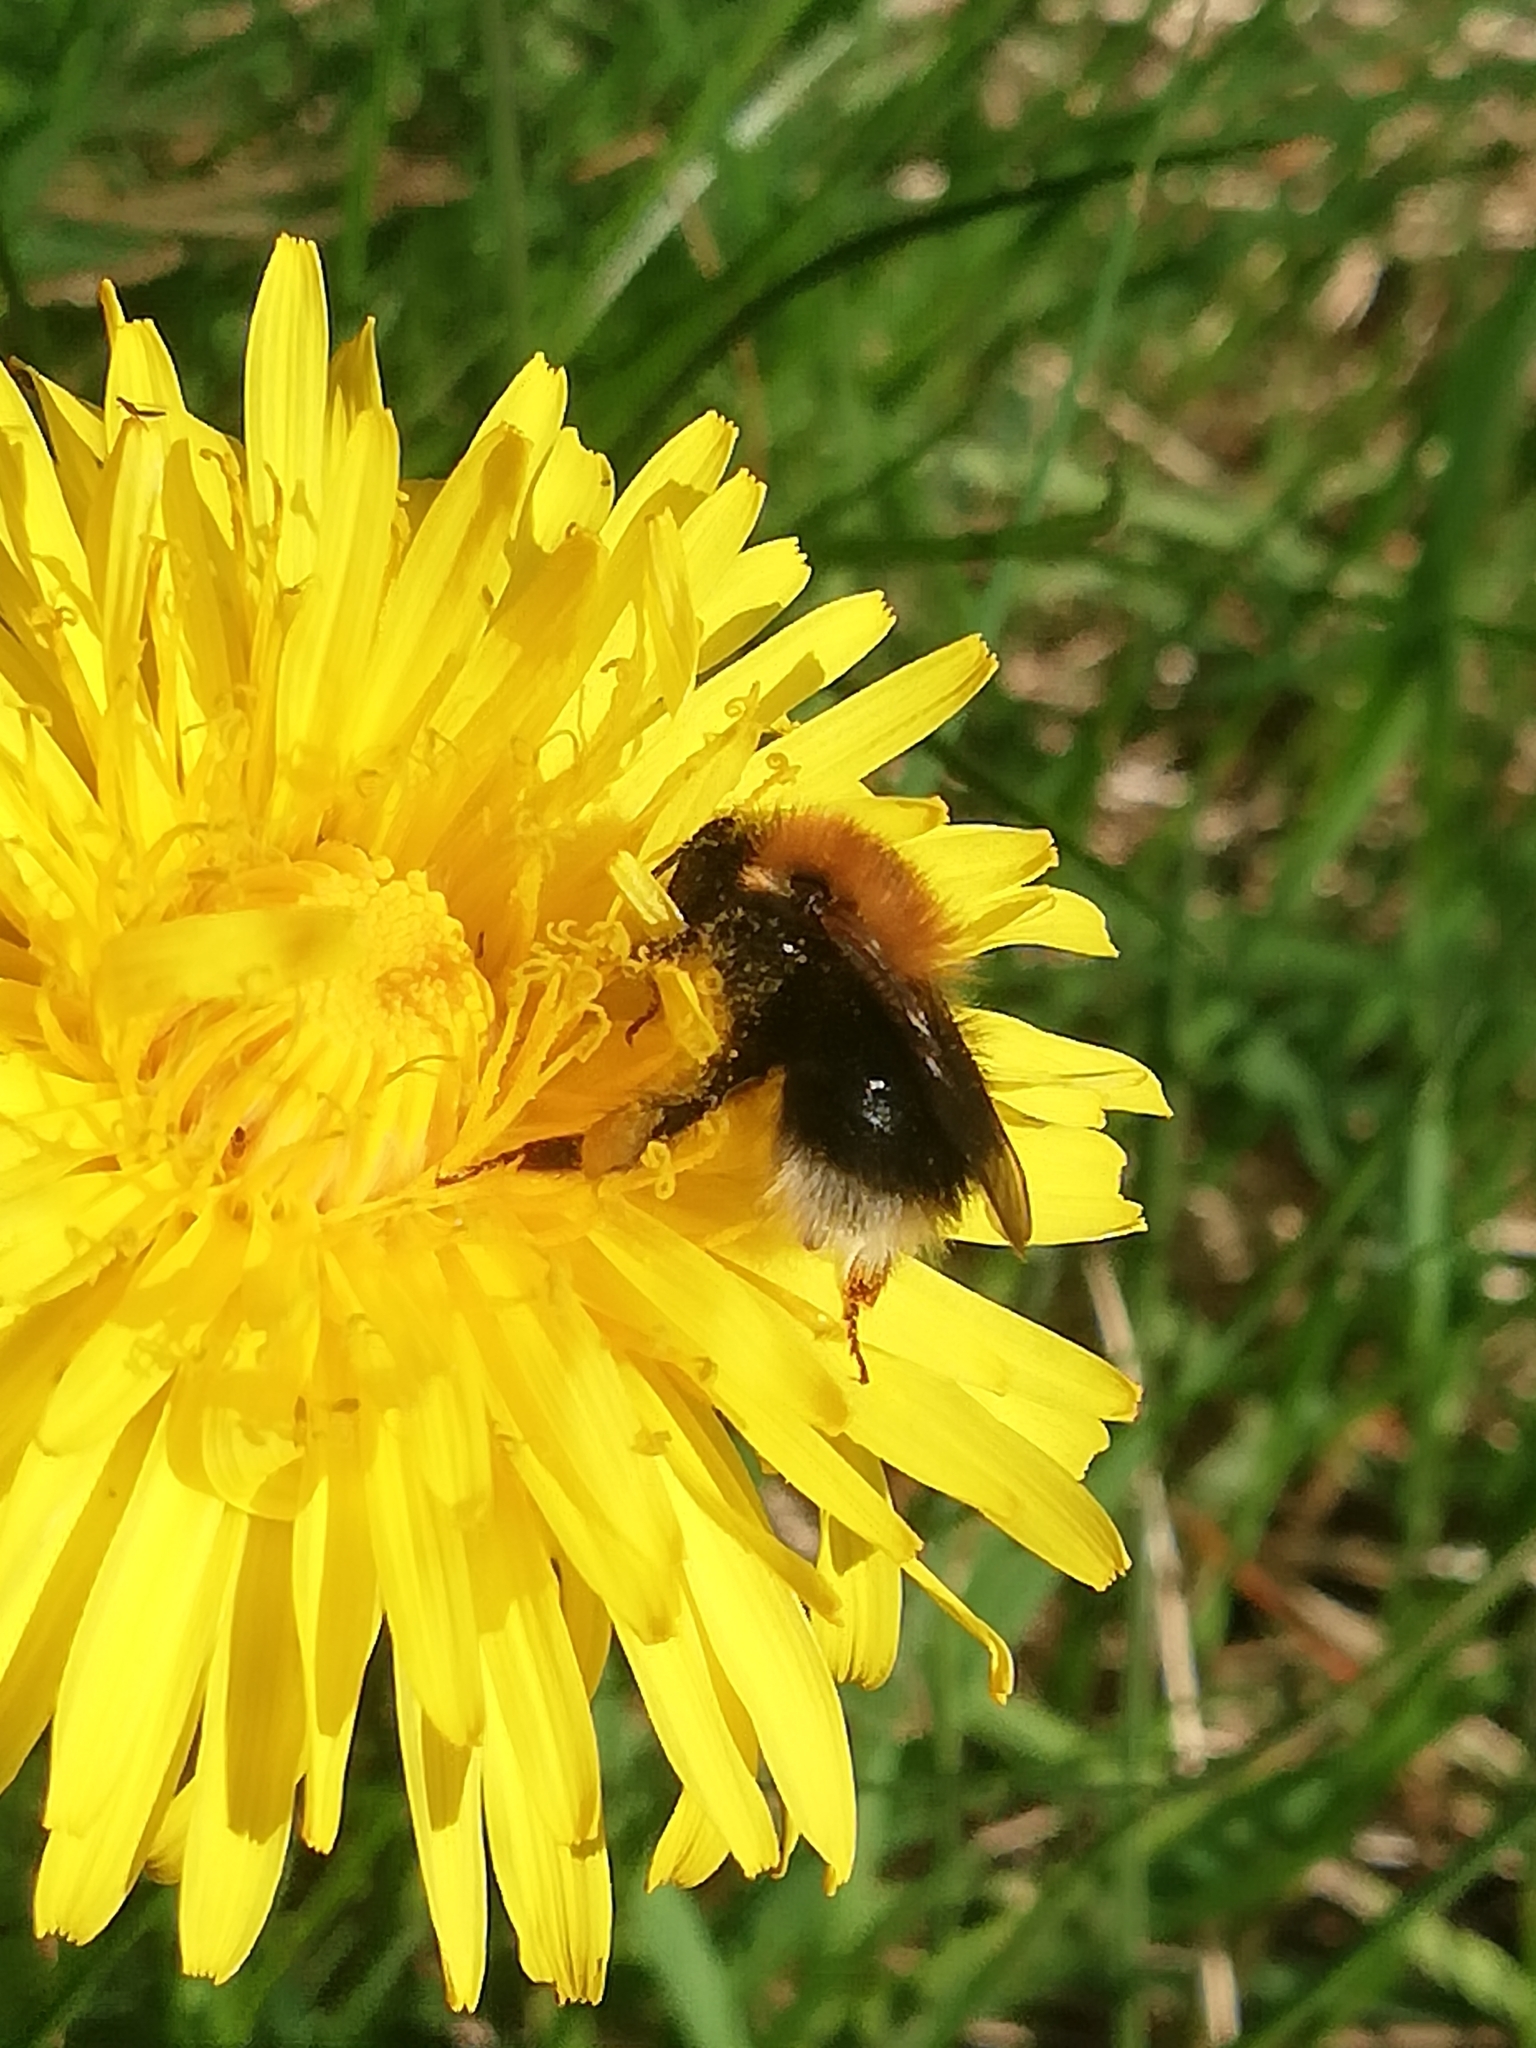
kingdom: Animalia
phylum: Arthropoda
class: Insecta
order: Hymenoptera
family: Apidae
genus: Bombus
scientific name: Bombus hypnorum
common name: New garden bumblebee
